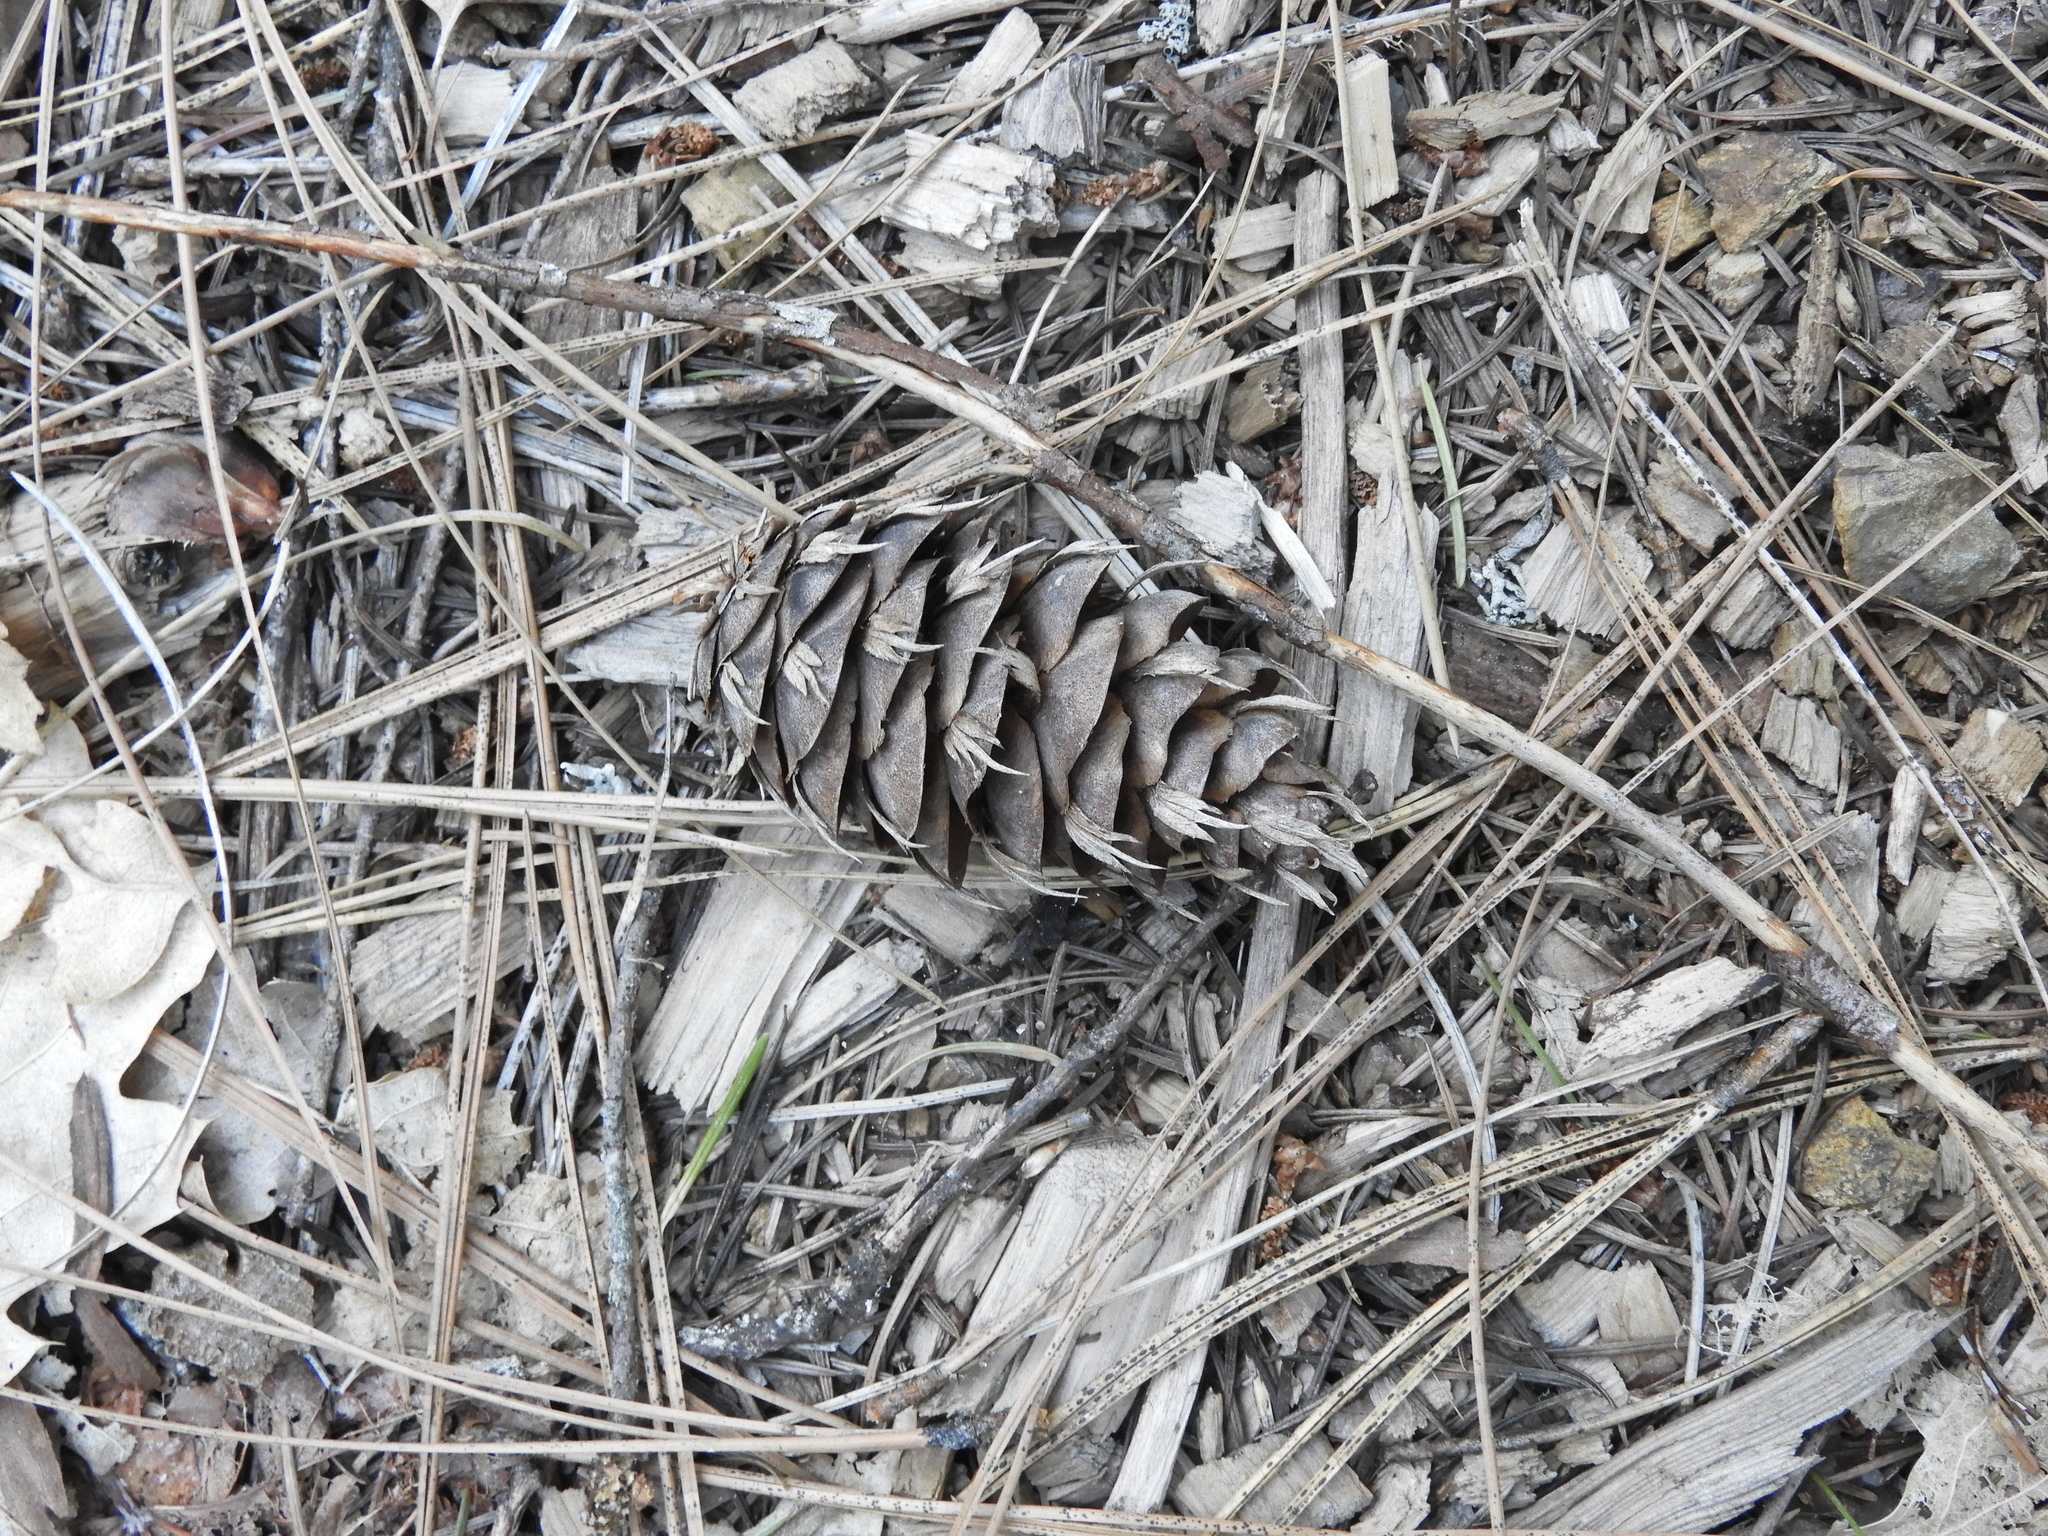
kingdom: Plantae
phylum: Tracheophyta
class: Pinopsida
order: Pinales
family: Pinaceae
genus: Pseudotsuga
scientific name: Pseudotsuga menziesii
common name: Douglas fir
